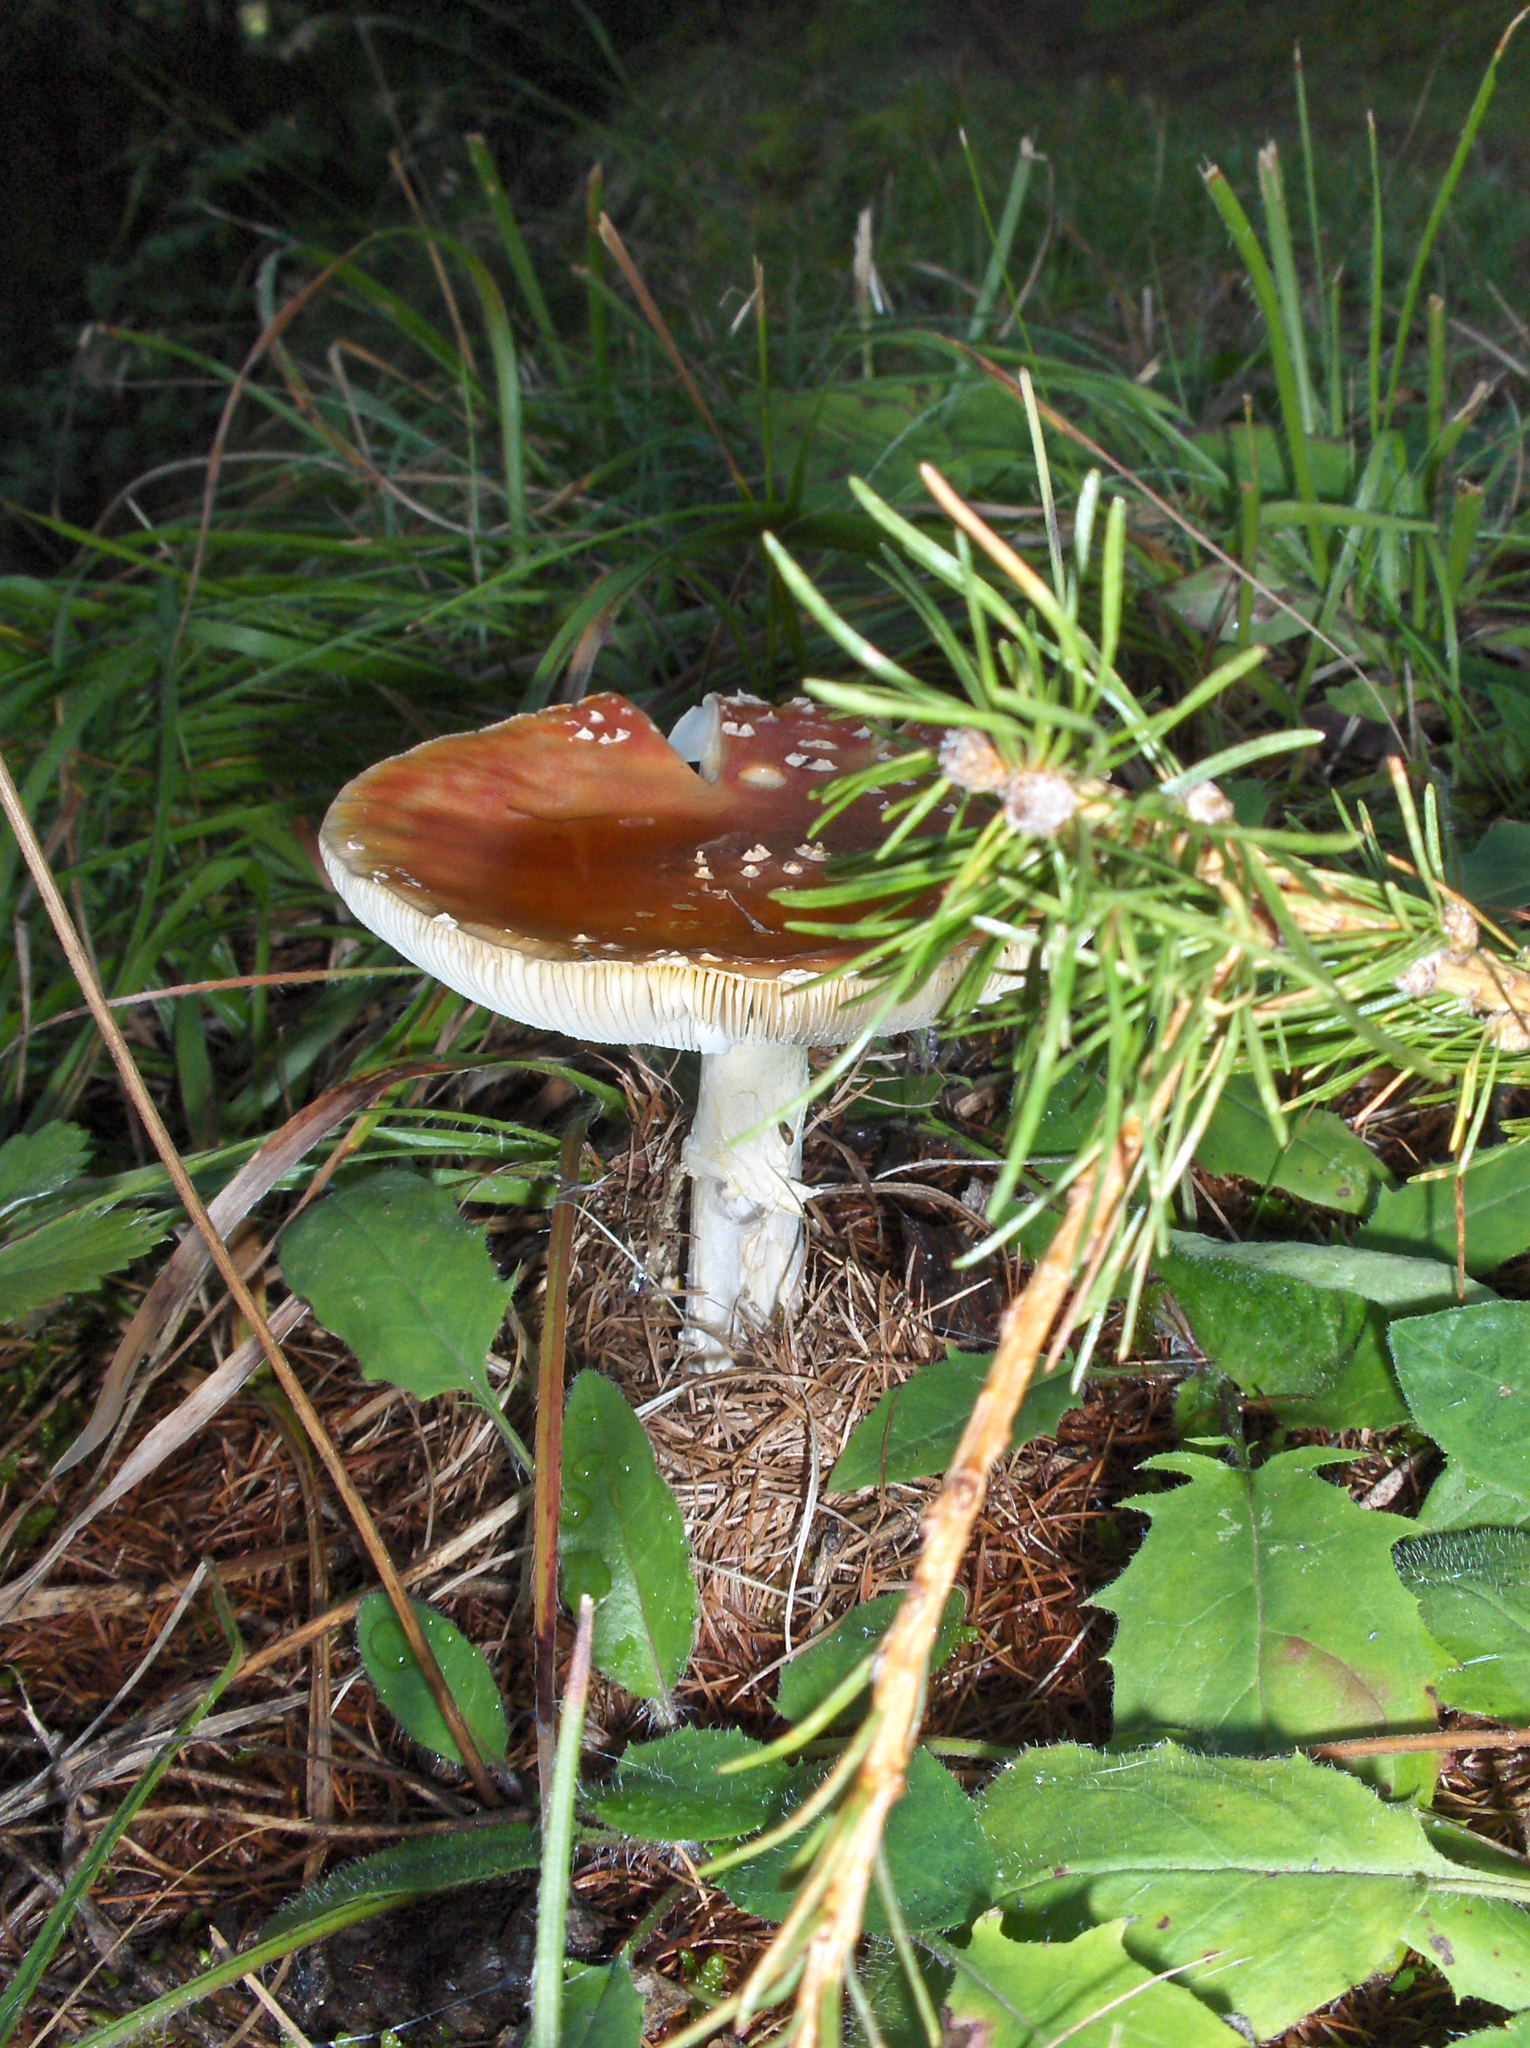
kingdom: Fungi
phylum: Basidiomycota
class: Agaricomycetes
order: Agaricales
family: Amanitaceae
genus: Amanita
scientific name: Amanita muscaria
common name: Fly agaric
